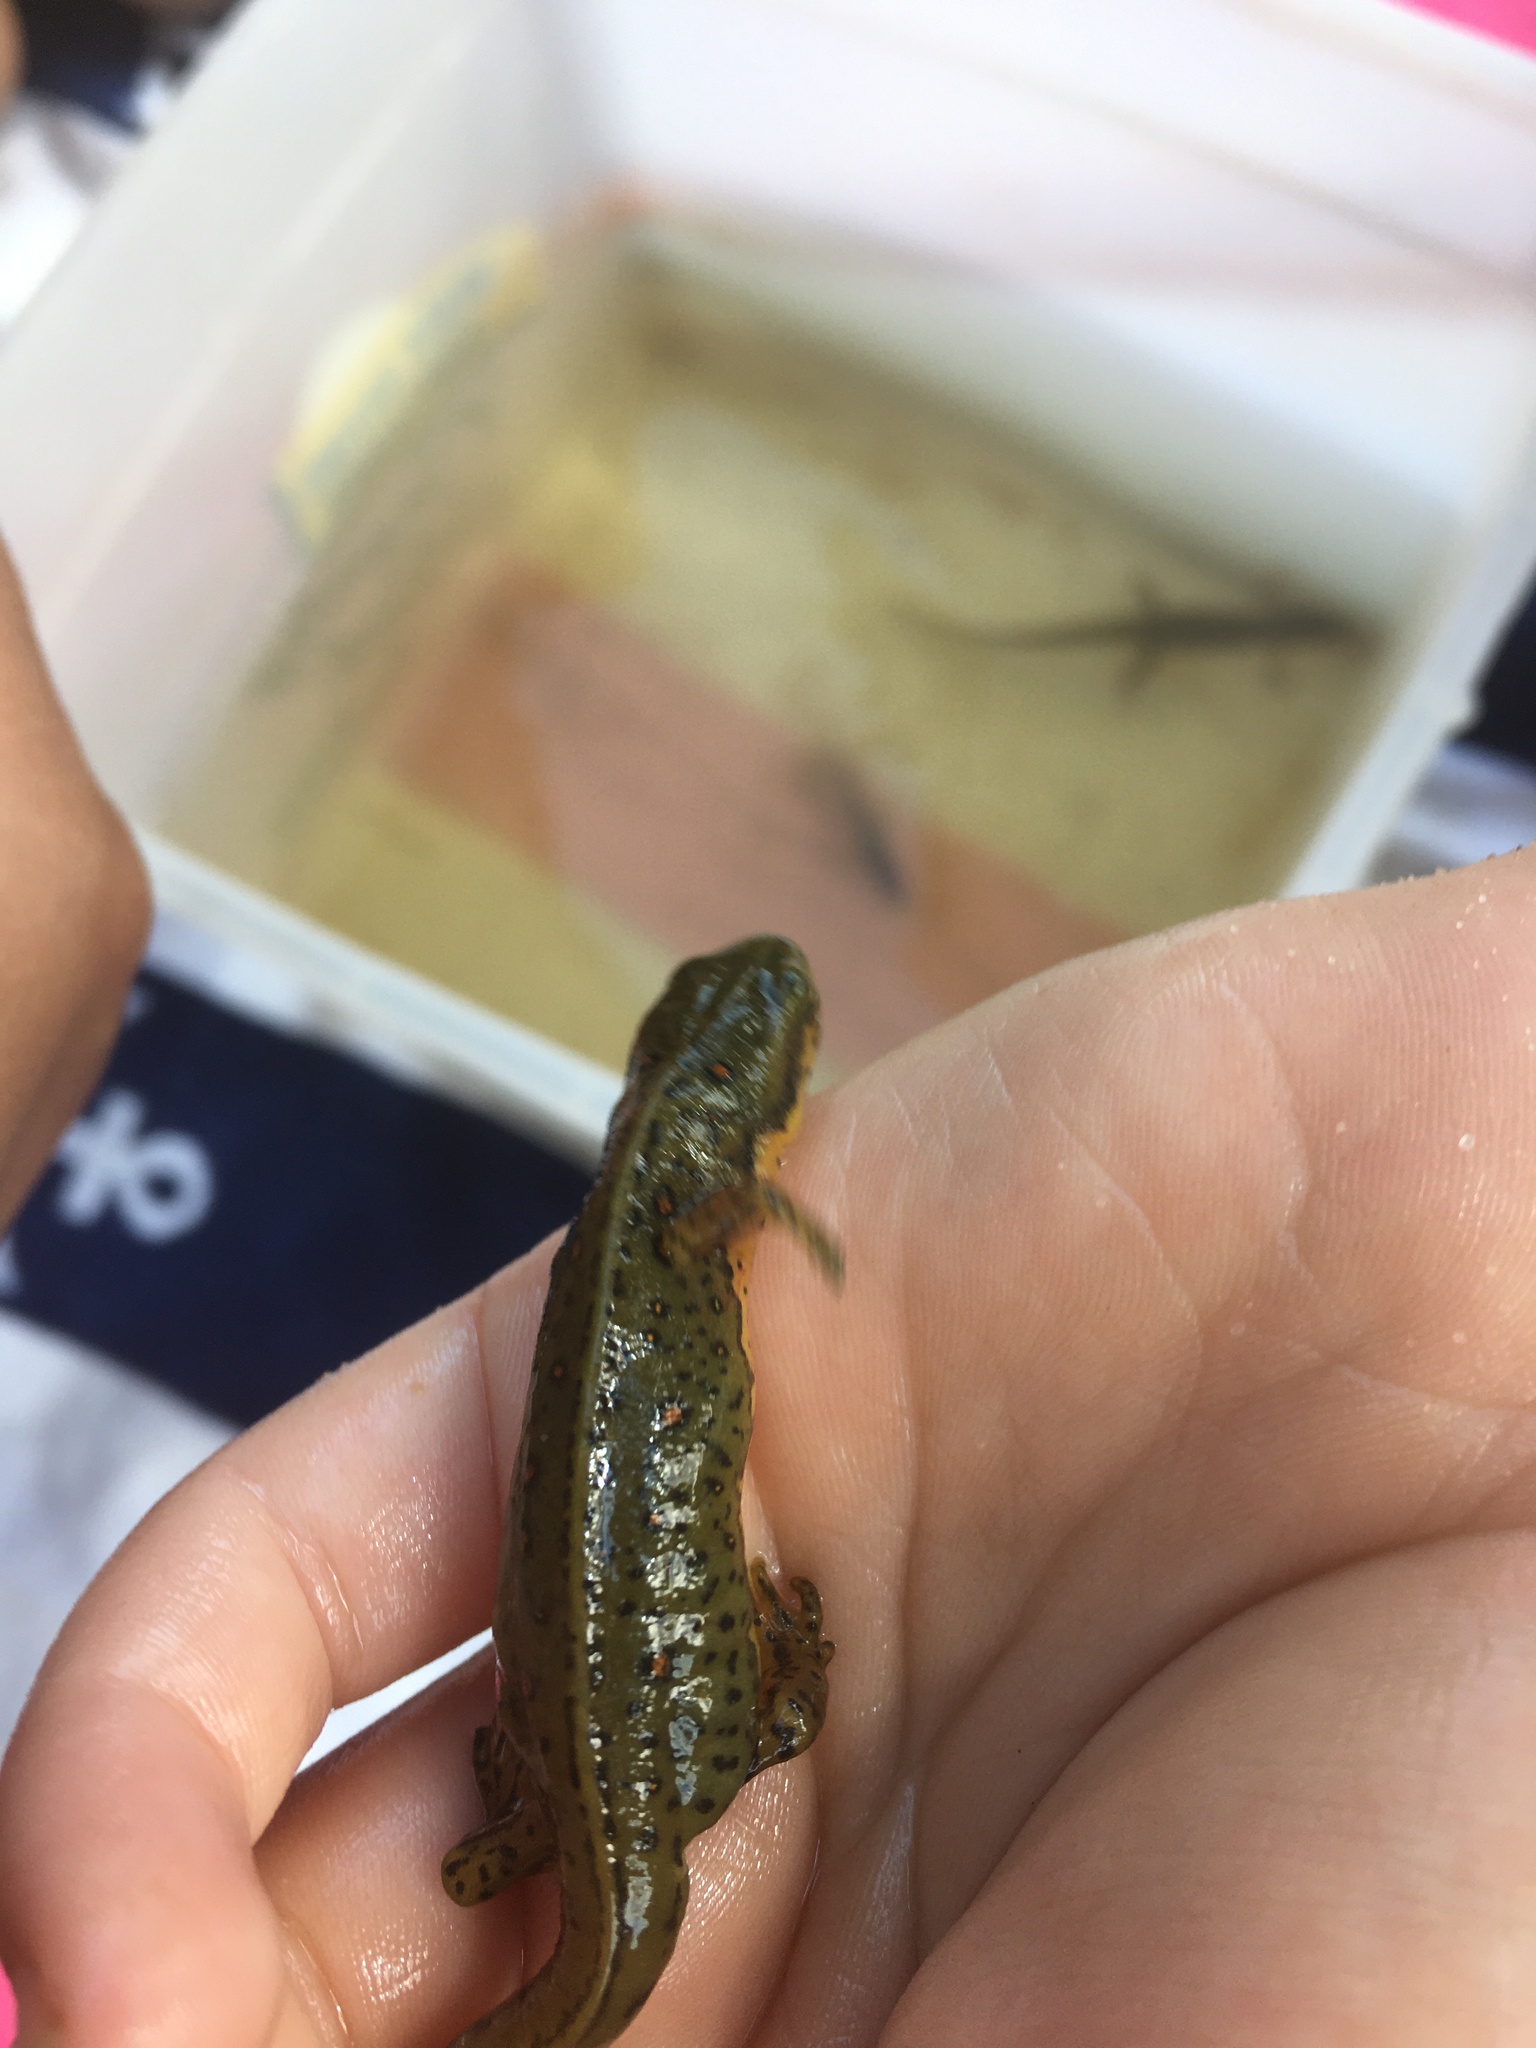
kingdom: Animalia
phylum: Chordata
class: Amphibia
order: Caudata
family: Salamandridae
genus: Notophthalmus
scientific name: Notophthalmus viridescens
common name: Eastern newt
